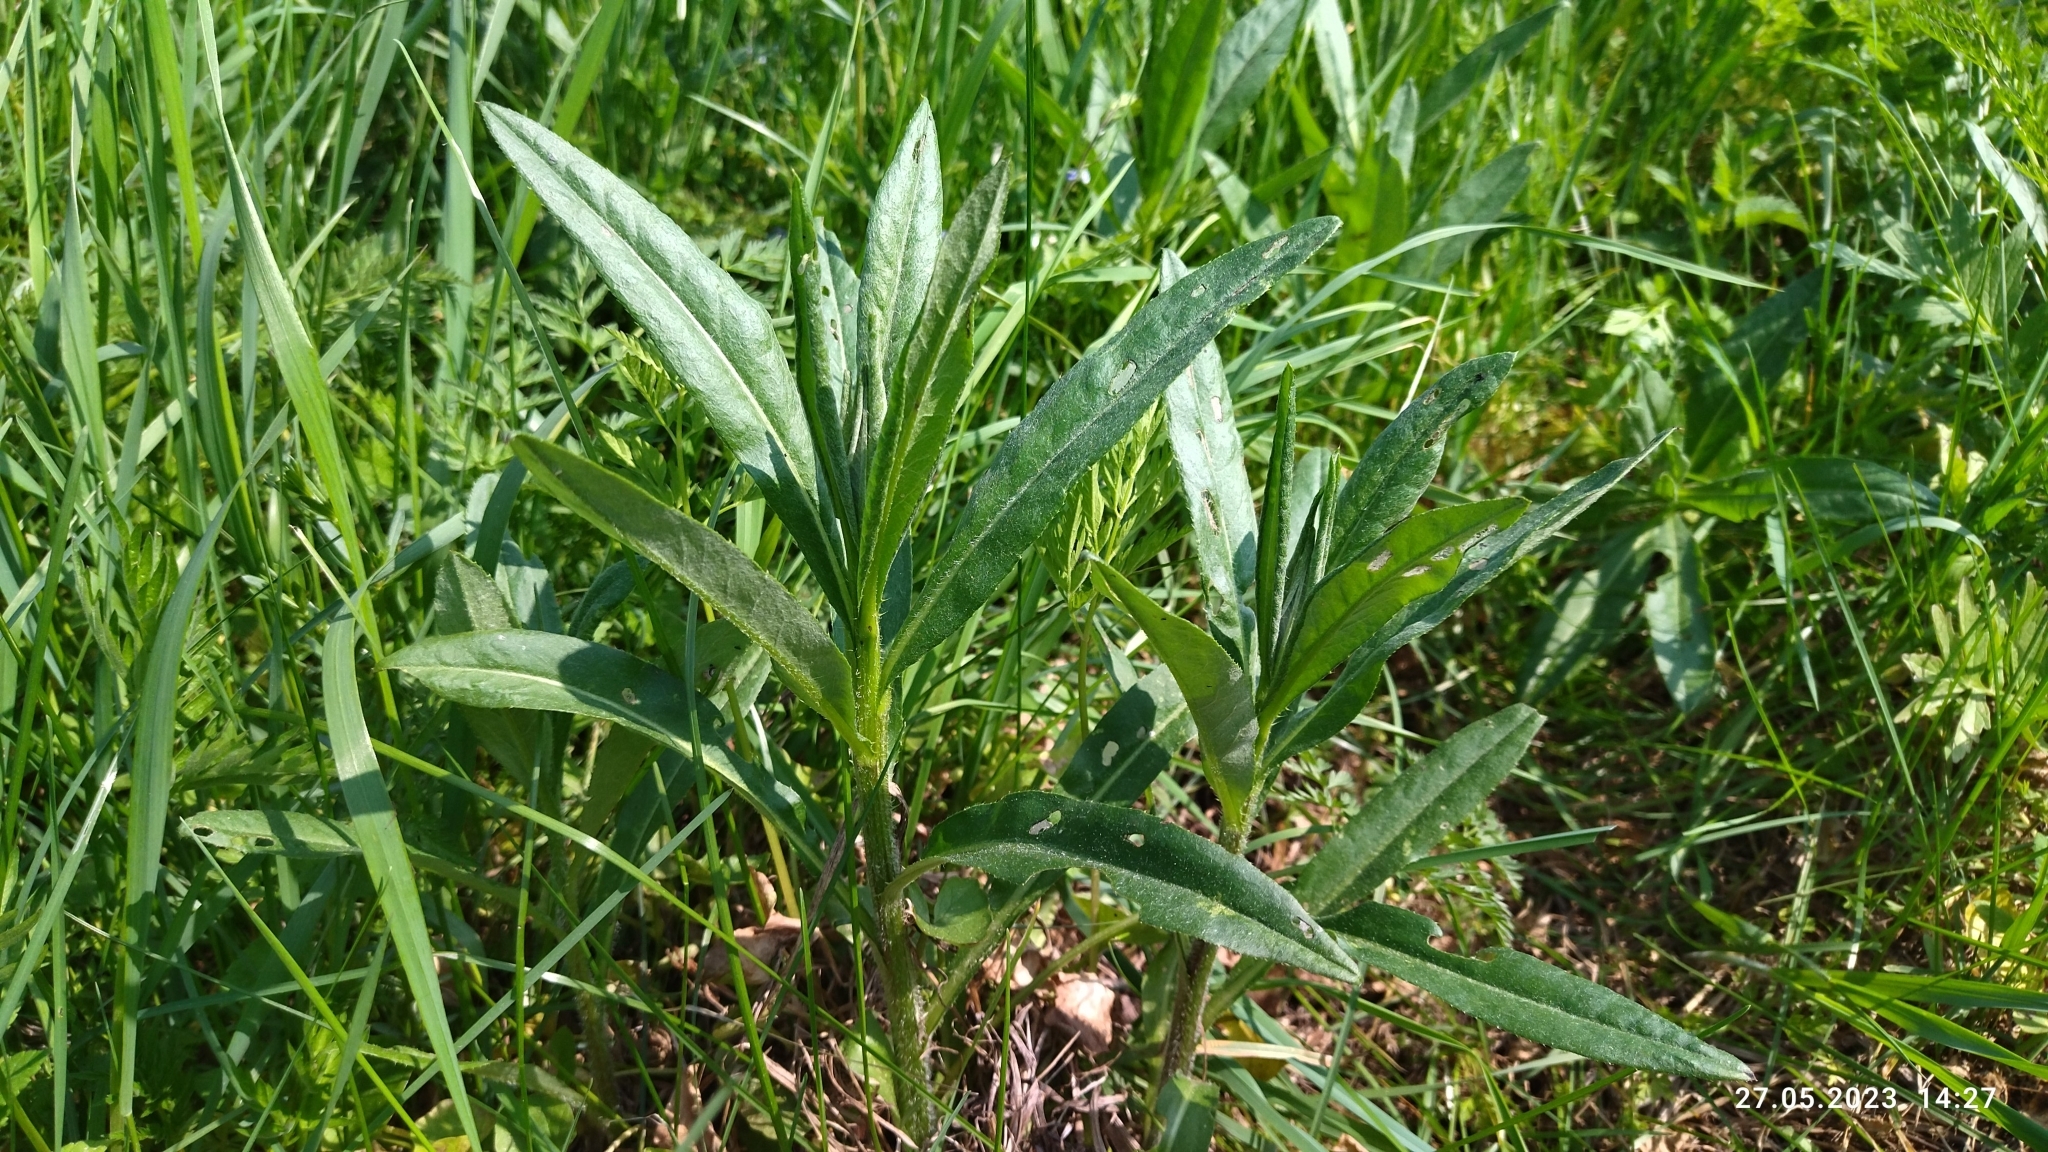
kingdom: Plantae
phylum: Tracheophyta
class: Magnoliopsida
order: Asterales
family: Asteraceae
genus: Cirsium
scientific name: Cirsium arvense
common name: Creeping thistle
